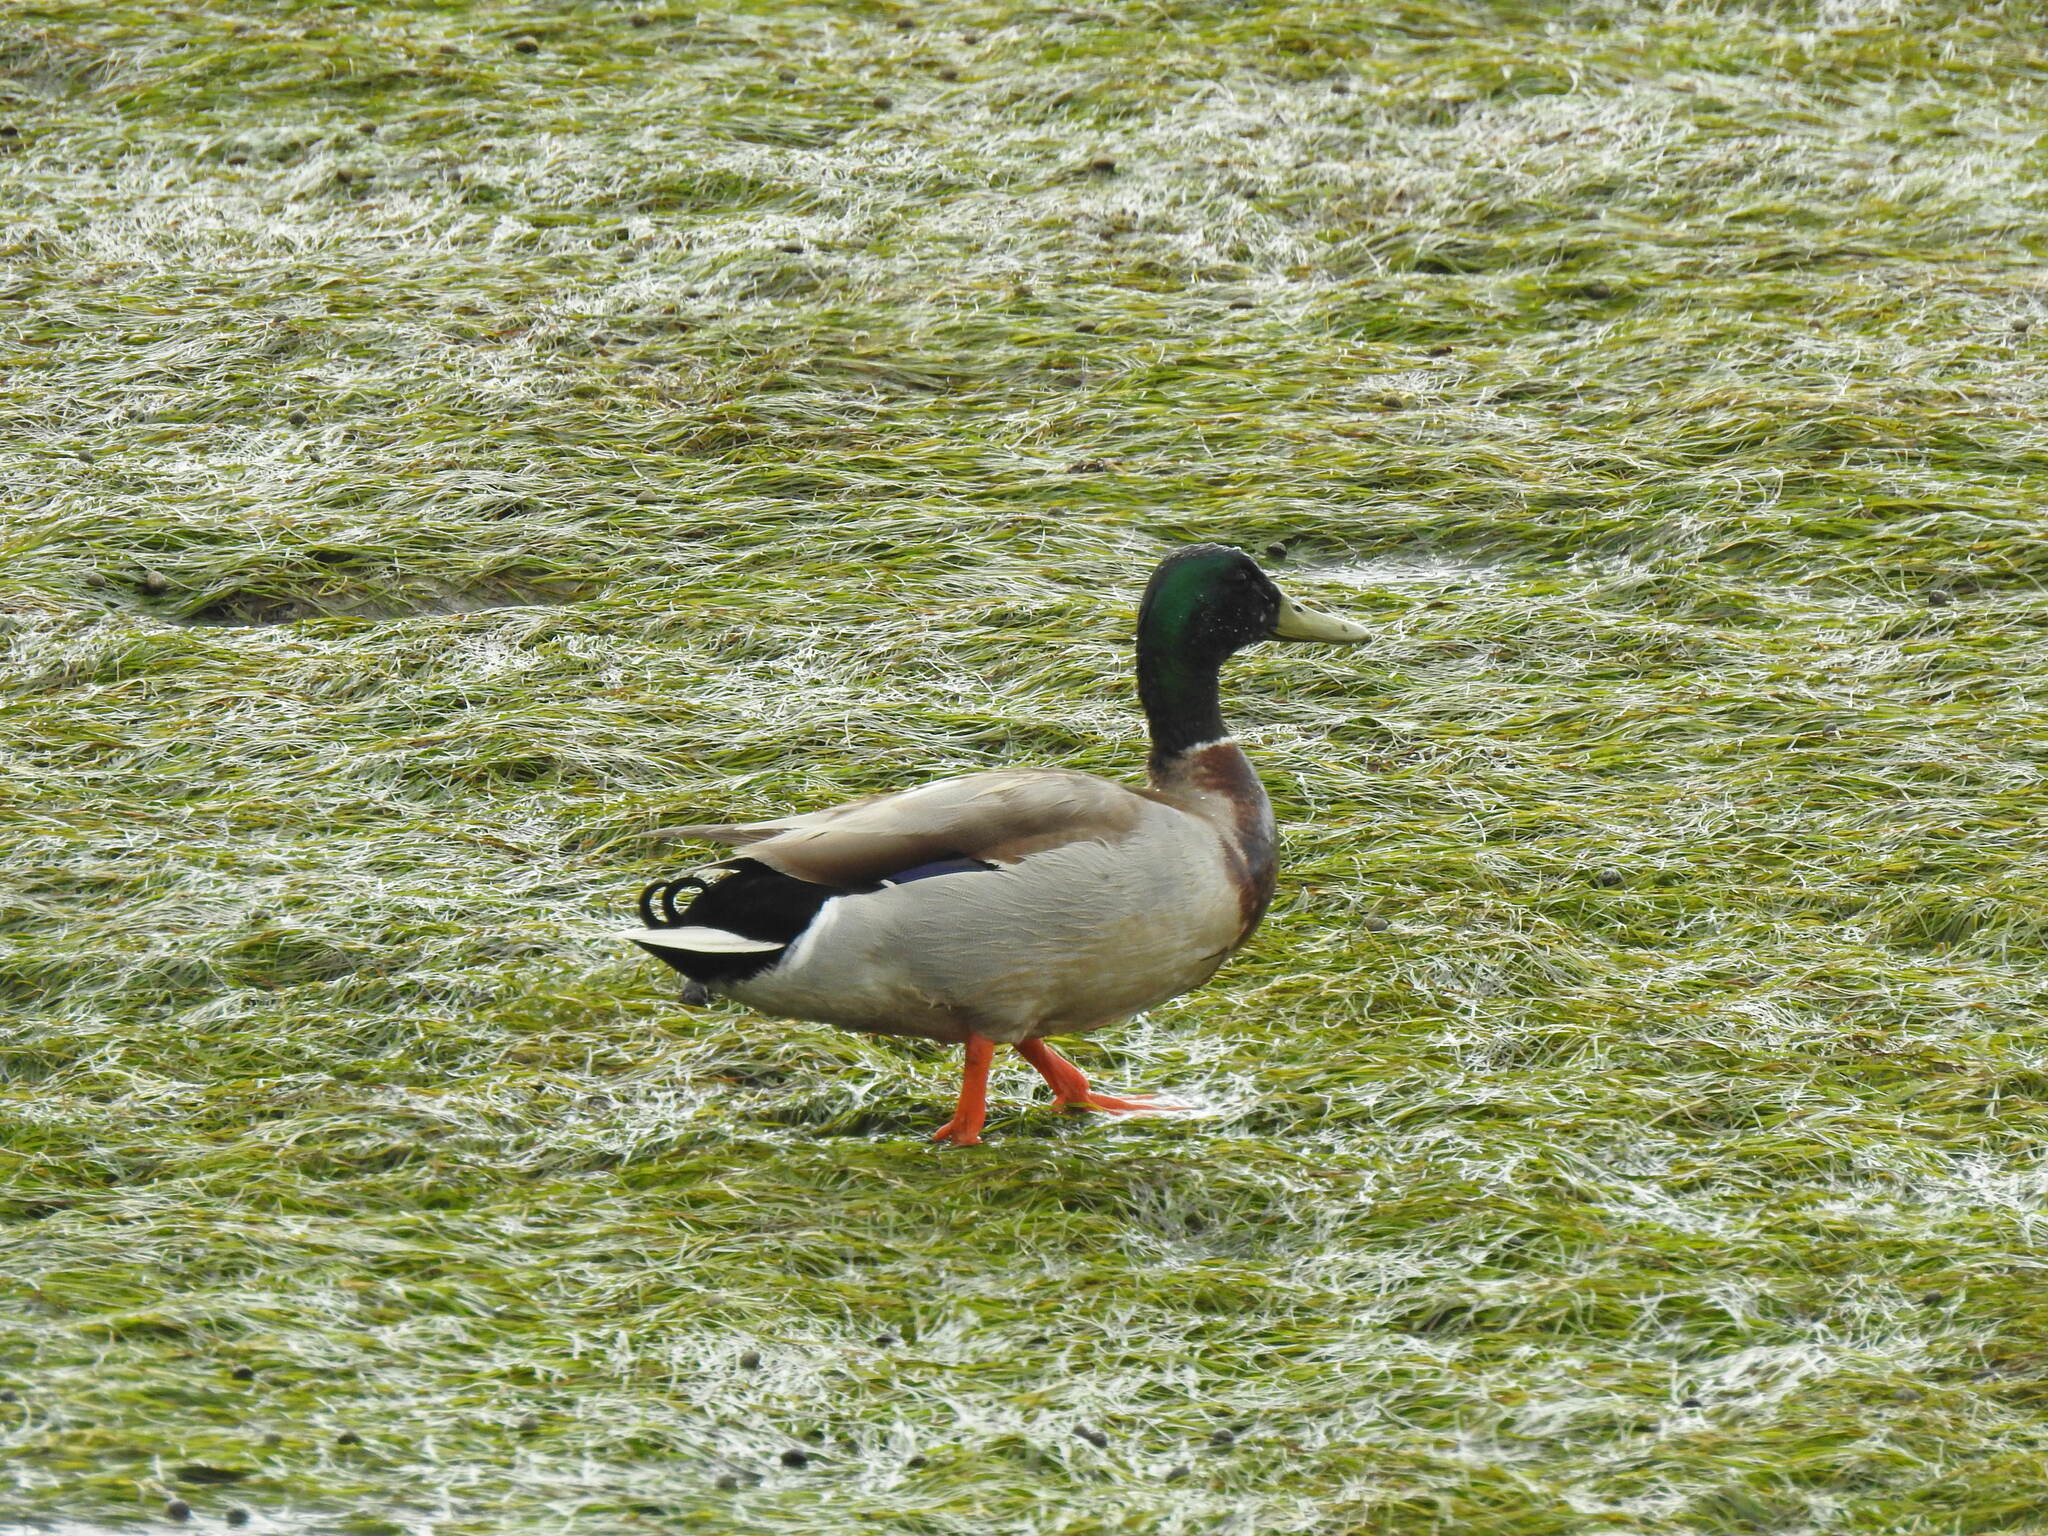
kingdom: Animalia
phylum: Chordata
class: Aves
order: Anseriformes
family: Anatidae
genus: Anas
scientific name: Anas platyrhynchos
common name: Mallard
